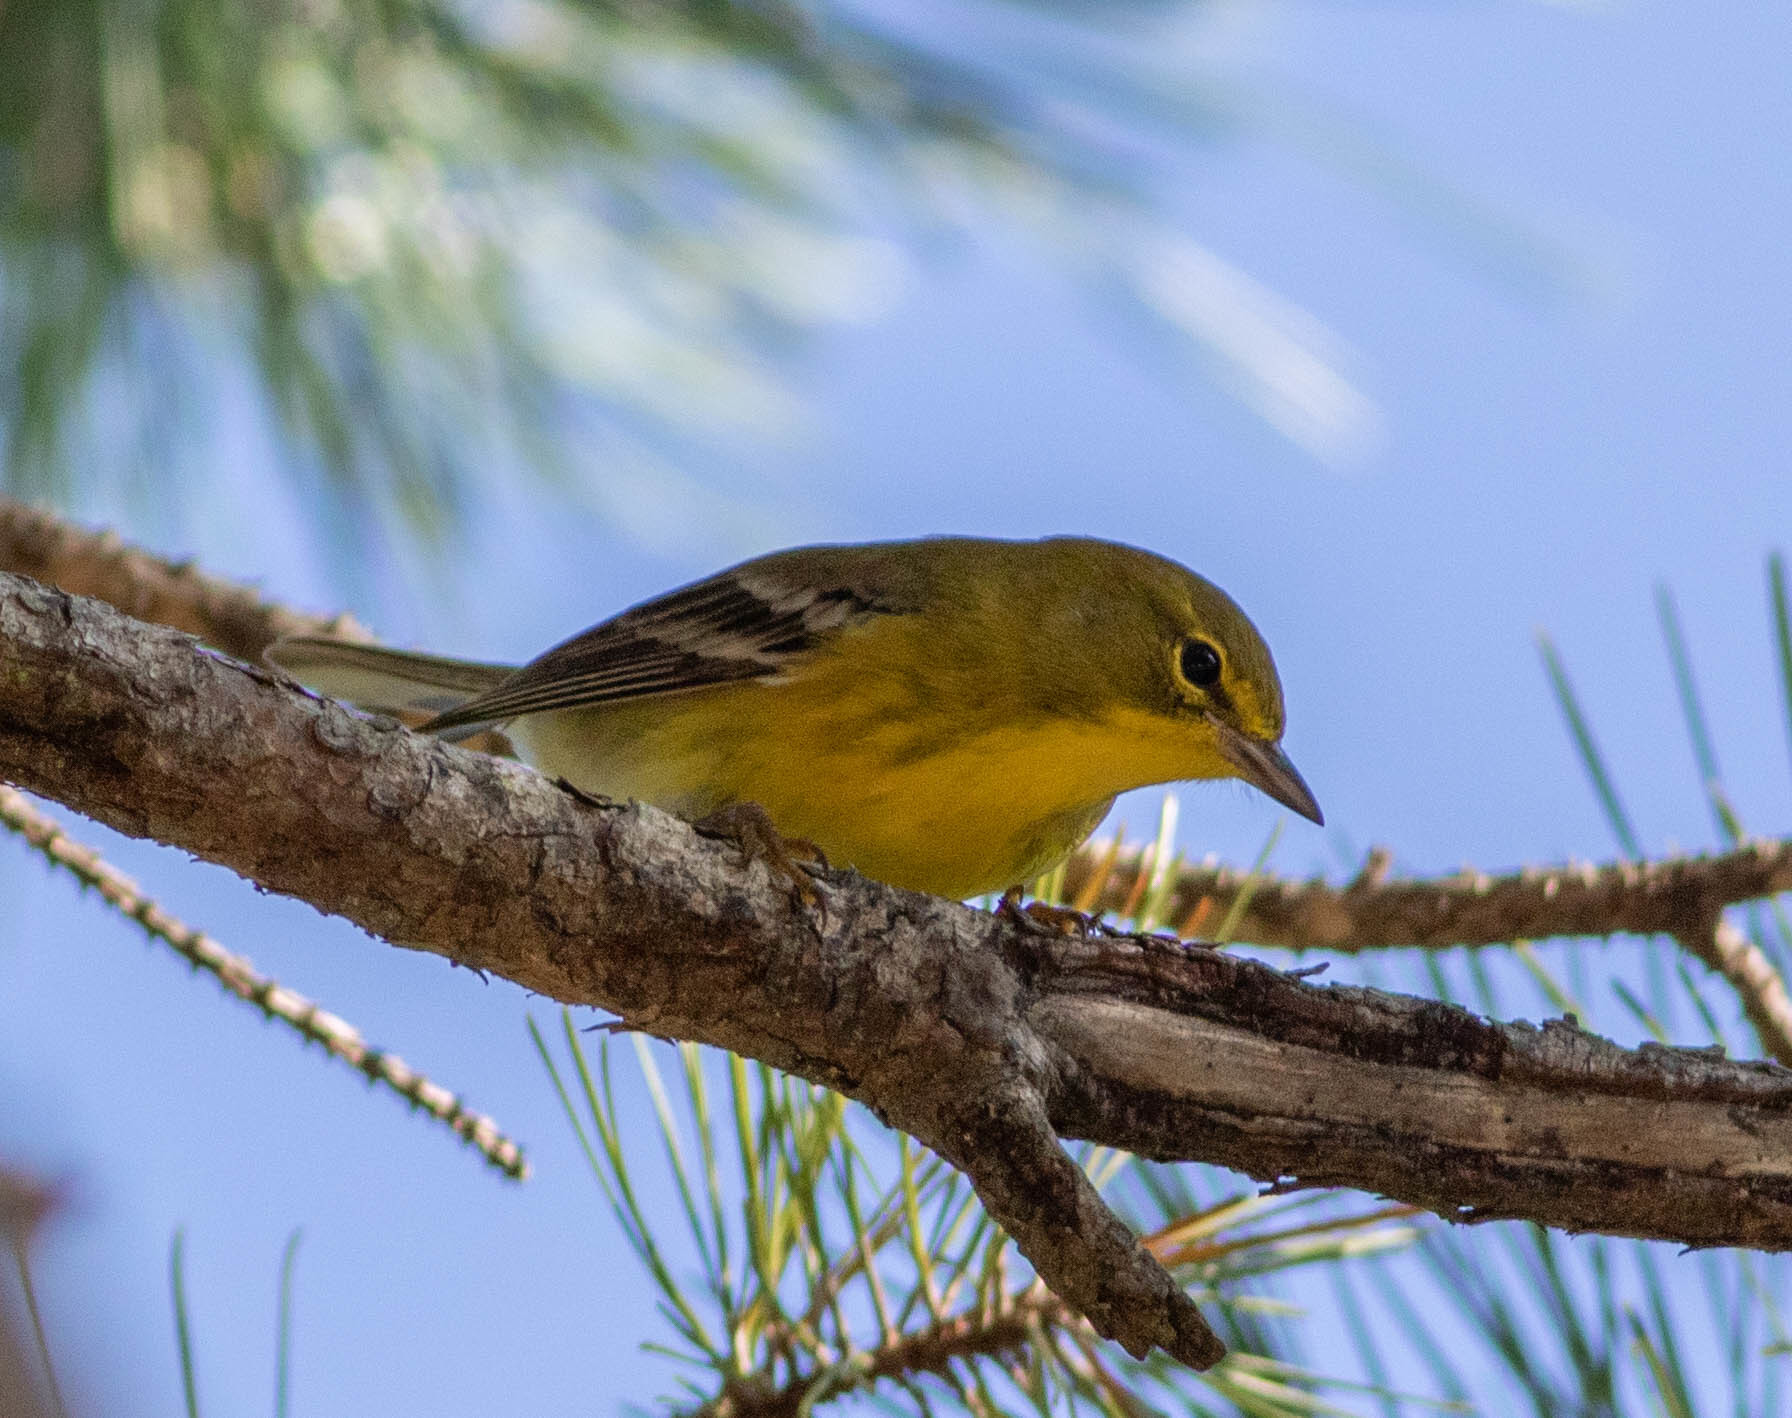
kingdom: Animalia
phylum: Chordata
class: Aves
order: Passeriformes
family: Parulidae
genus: Setophaga
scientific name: Setophaga pinus
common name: Pine warbler
